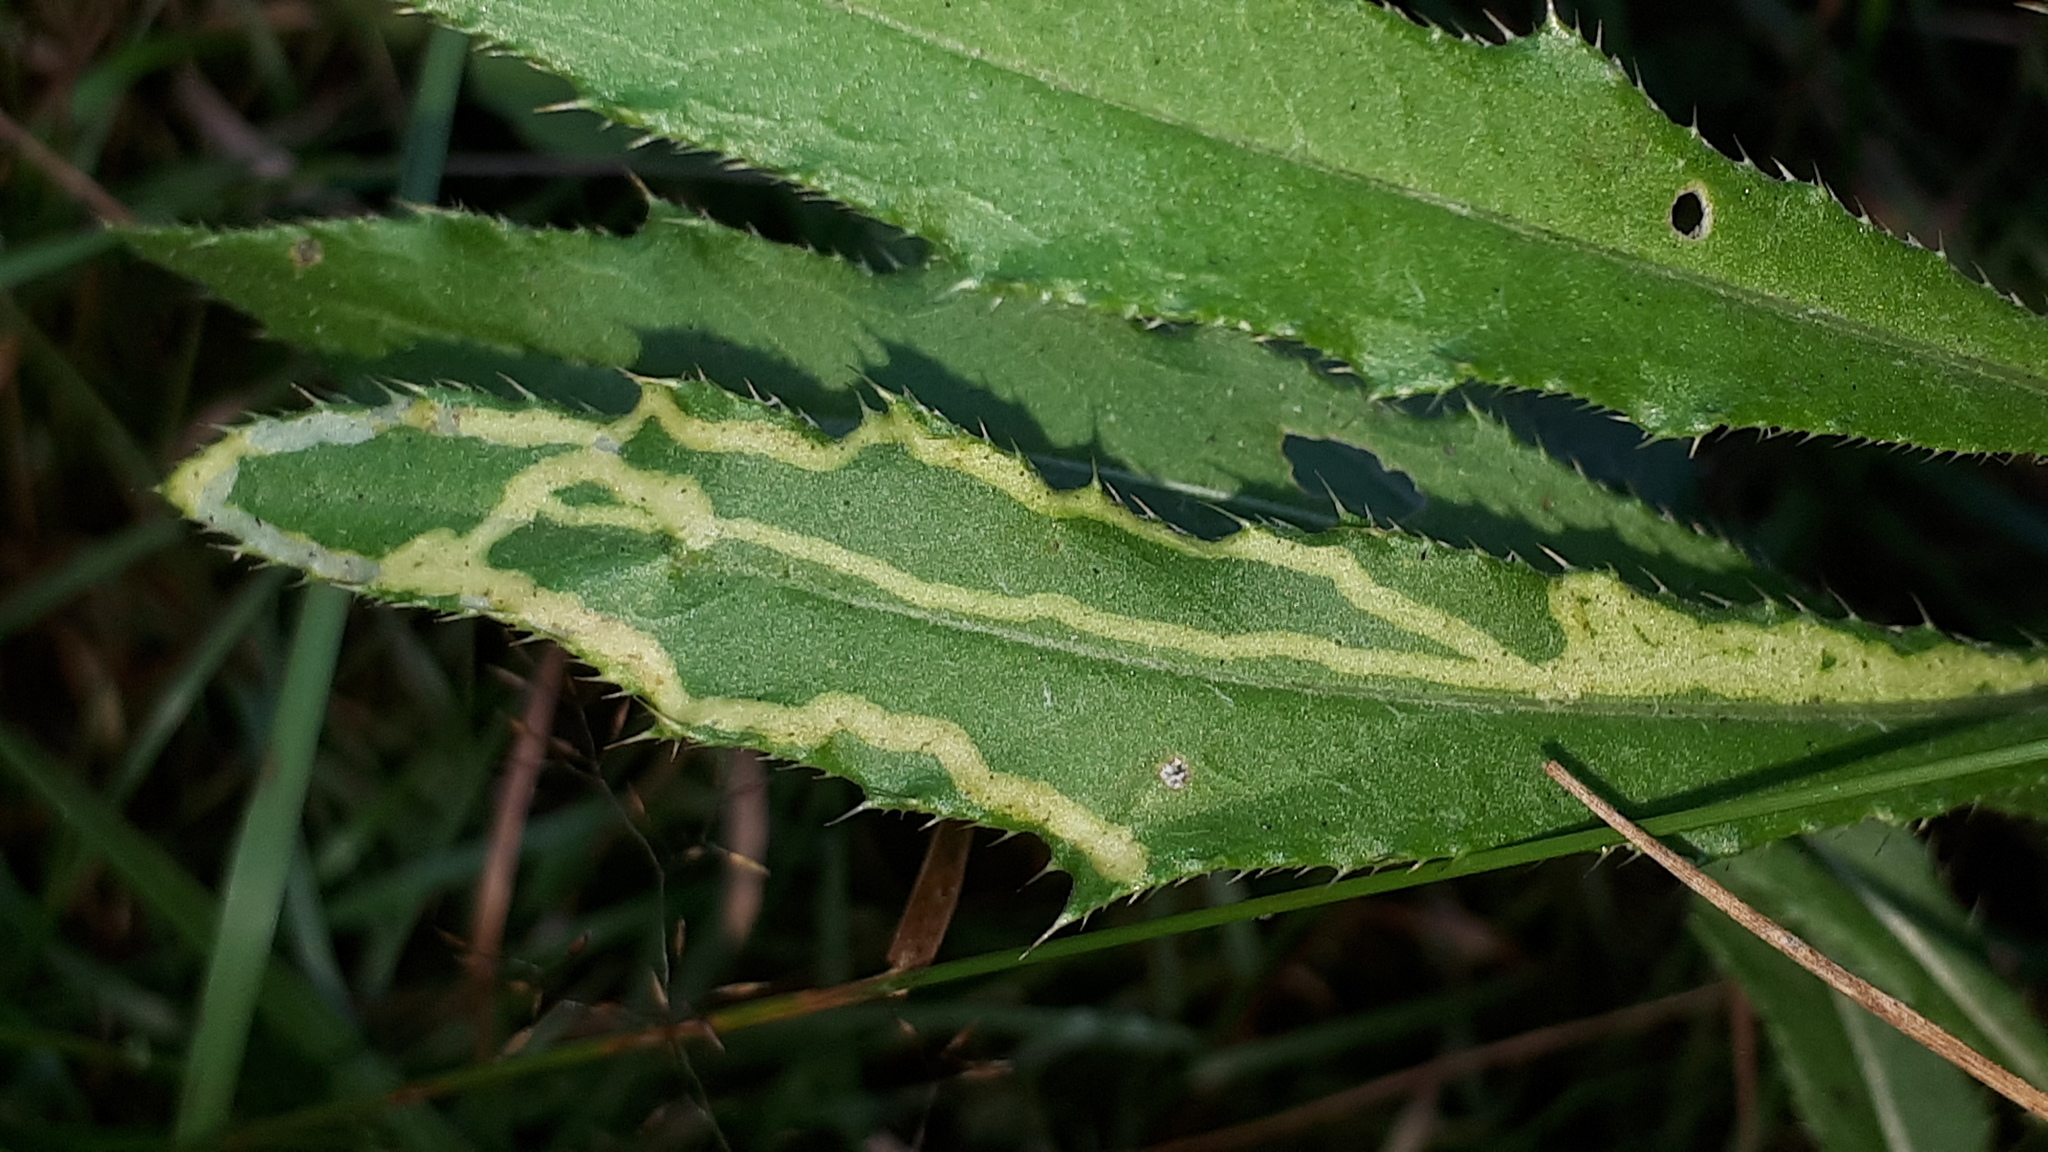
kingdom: Animalia
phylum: Arthropoda
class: Insecta
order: Diptera
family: Agromyzidae
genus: Phytomyza
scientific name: Phytomyza spinaciae
